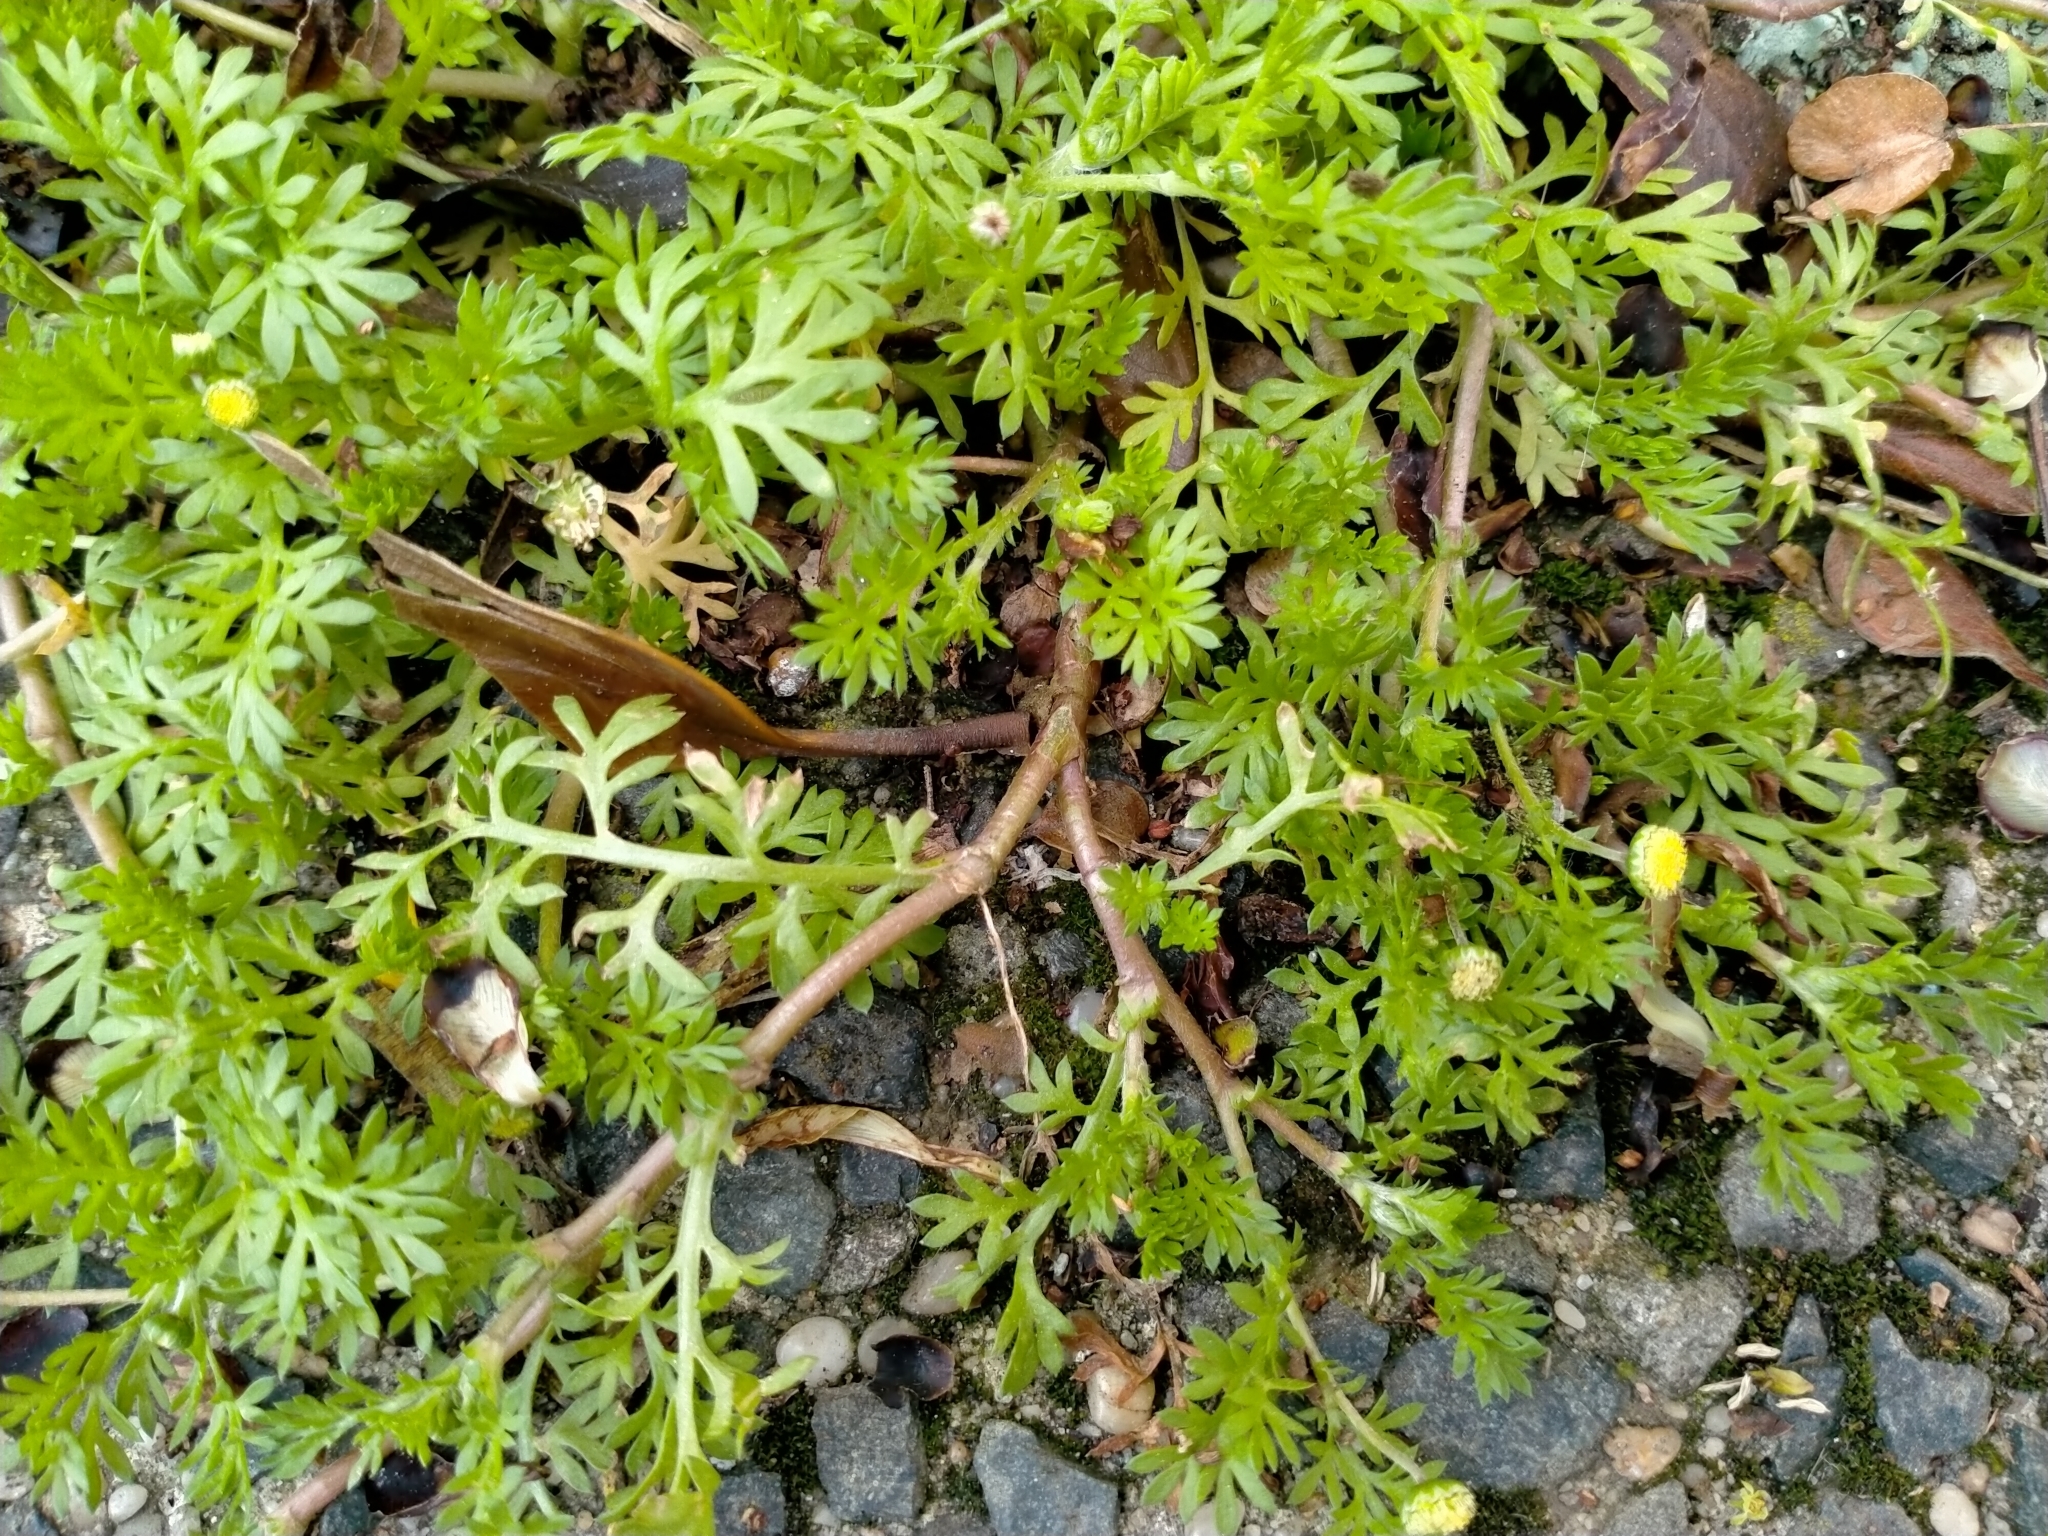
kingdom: Plantae
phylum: Tracheophyta
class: Magnoliopsida
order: Asterales
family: Asteraceae
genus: Cotula
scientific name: Cotula australis
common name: Australian waterbuttons
